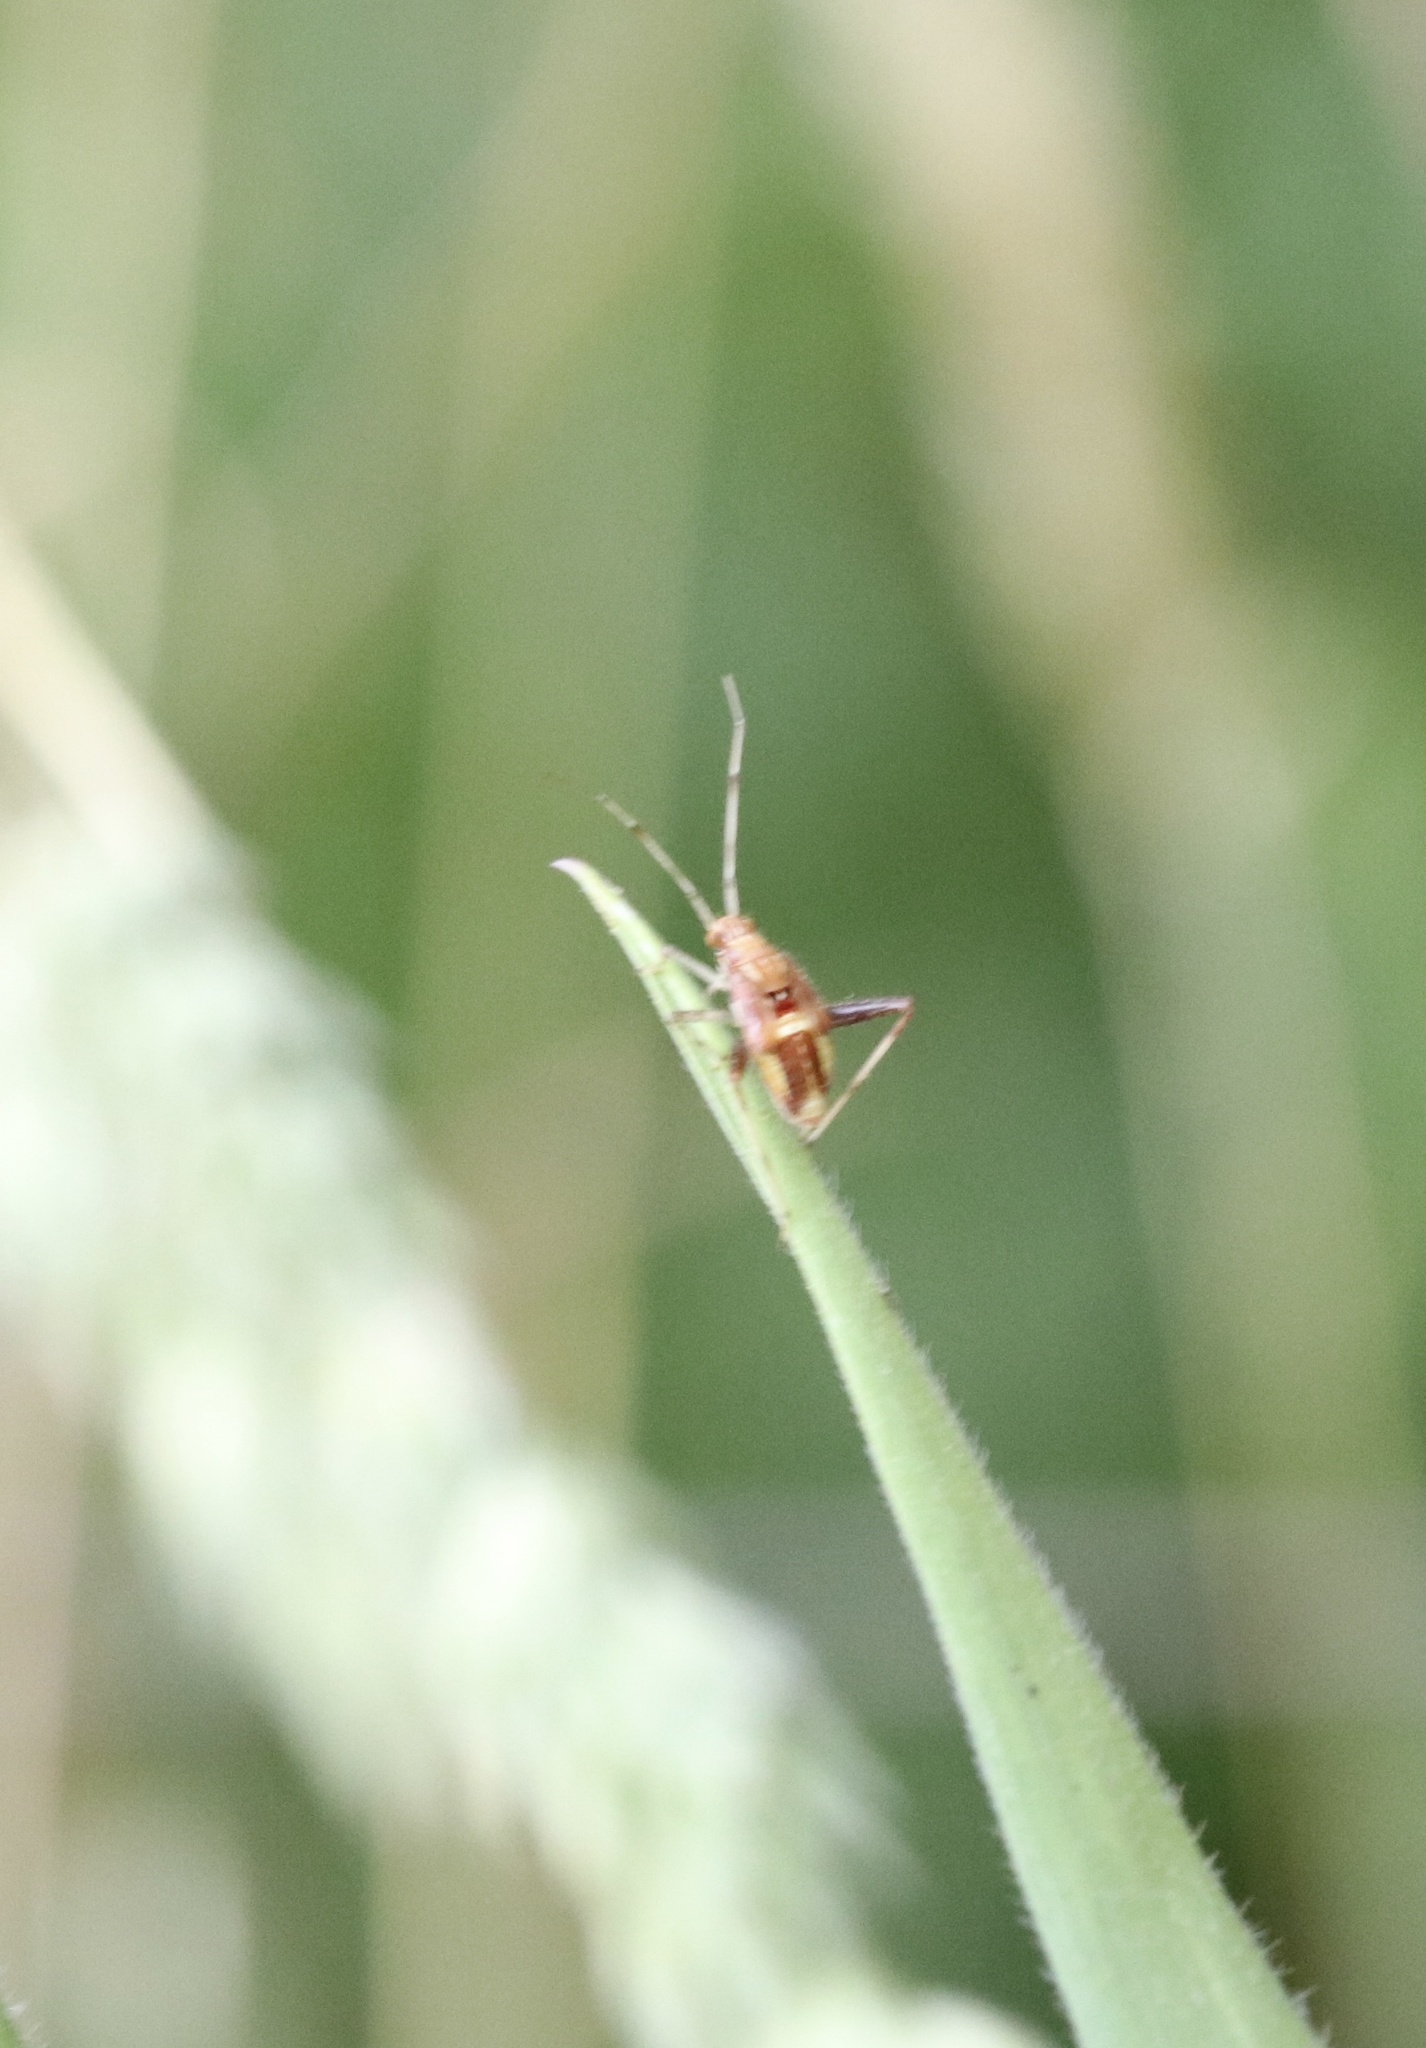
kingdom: Animalia
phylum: Arthropoda
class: Insecta
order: Hemiptera
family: Miridae
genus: Phytocoris
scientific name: Phytocoris
